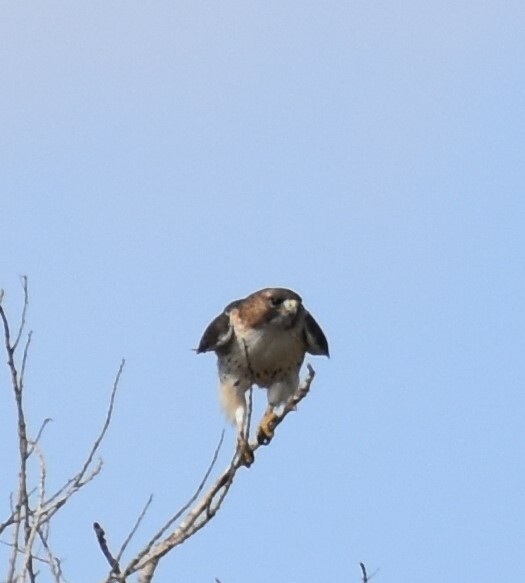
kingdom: Animalia
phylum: Chordata
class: Aves
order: Accipitriformes
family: Accipitridae
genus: Buteo
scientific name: Buteo jamaicensis
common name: Red-tailed hawk
